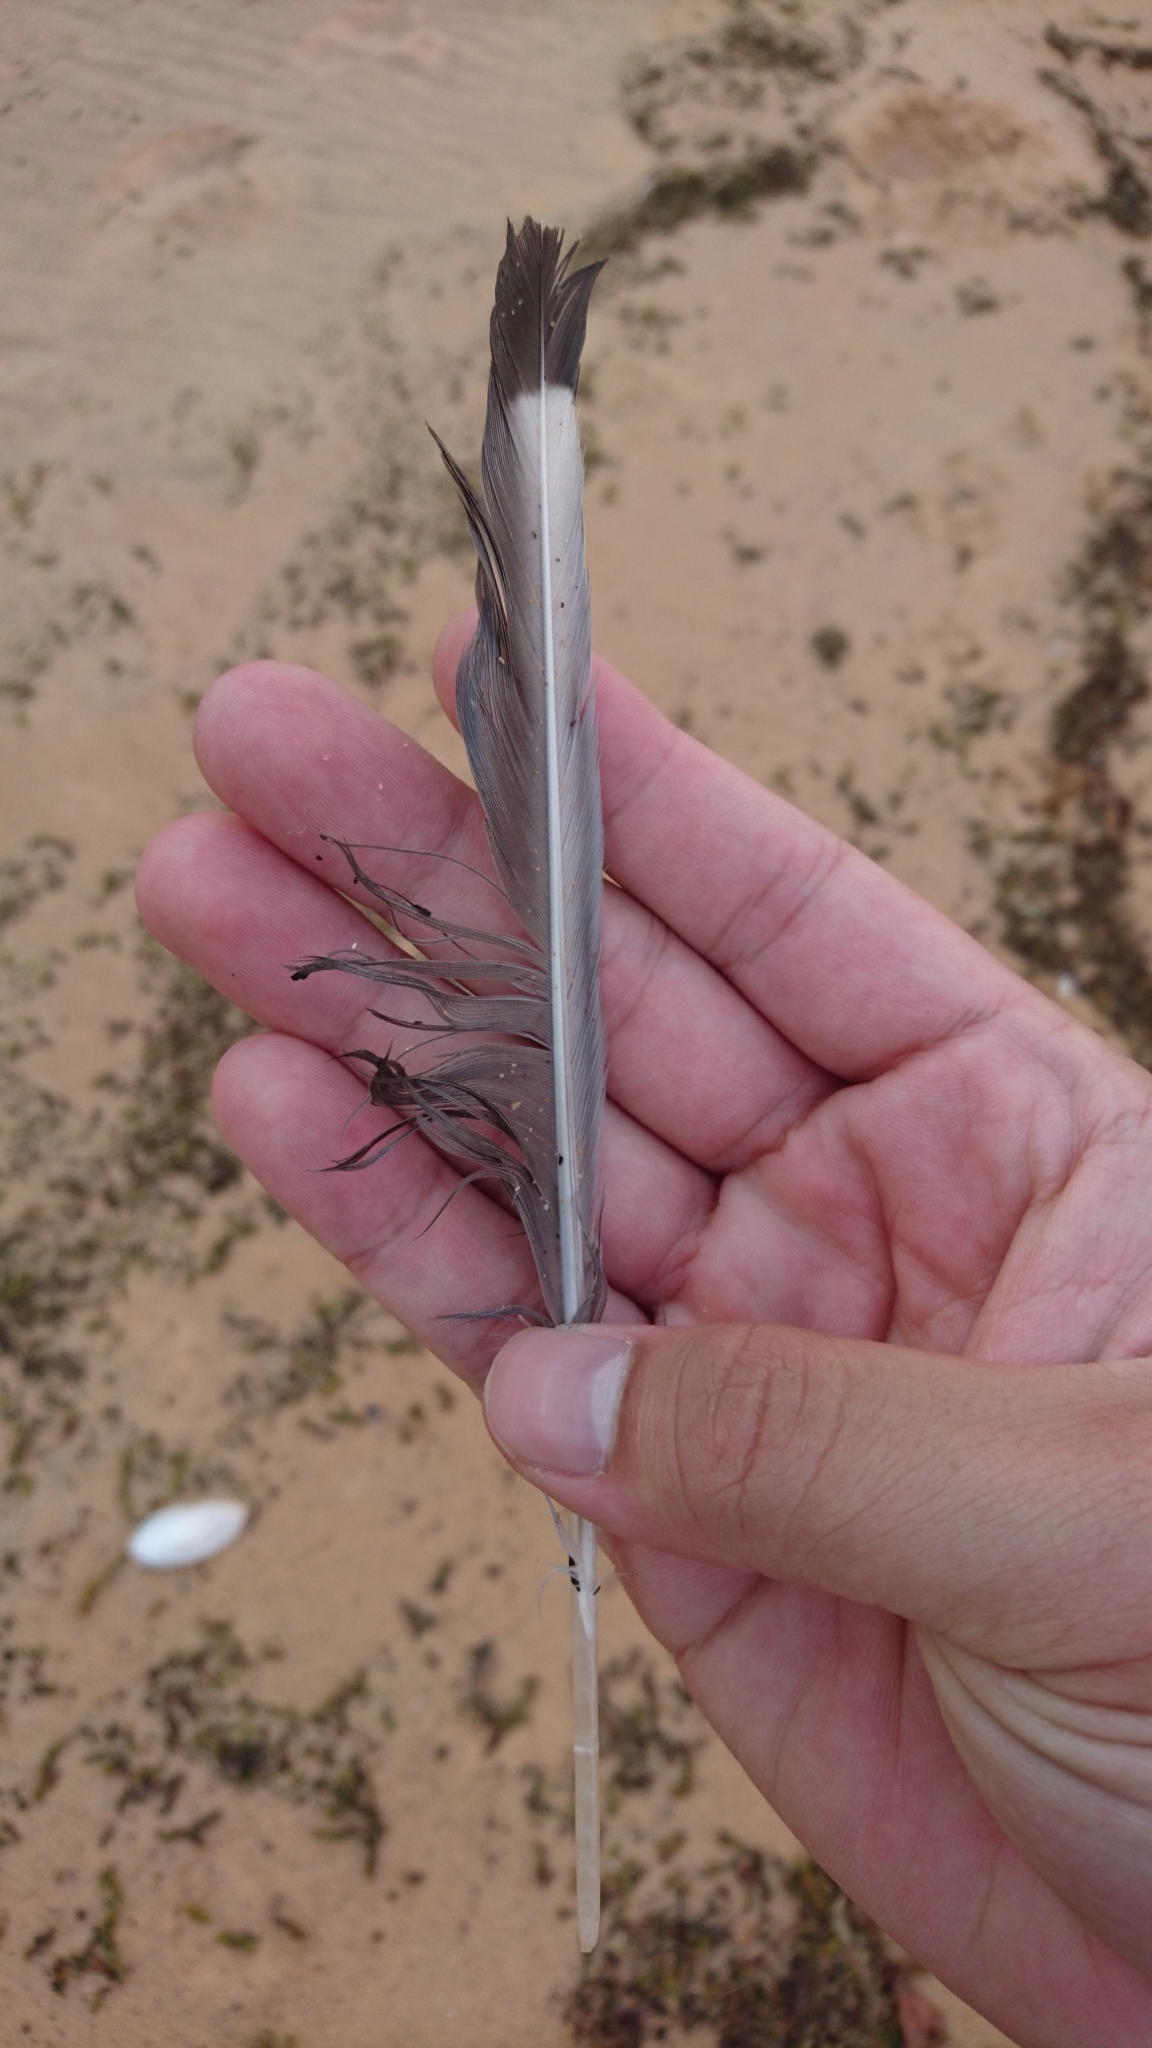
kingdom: Animalia
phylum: Chordata
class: Aves
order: Charadriiformes
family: Laridae
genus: Chroicocephalus
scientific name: Chroicocephalus novaehollandiae
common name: Silver gull
